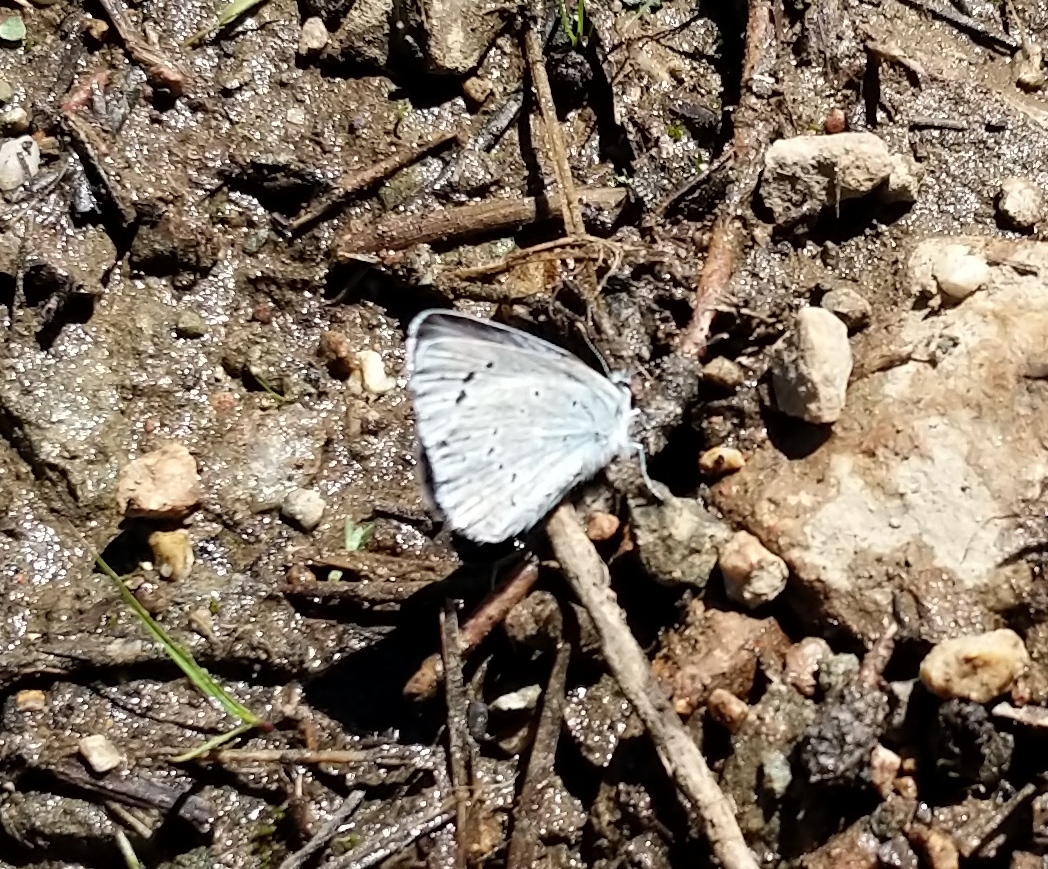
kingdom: Animalia
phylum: Arthropoda
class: Insecta
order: Lepidoptera
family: Lycaenidae
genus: Icaricia
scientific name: Icaricia icarioides
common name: Boisduval's blue
